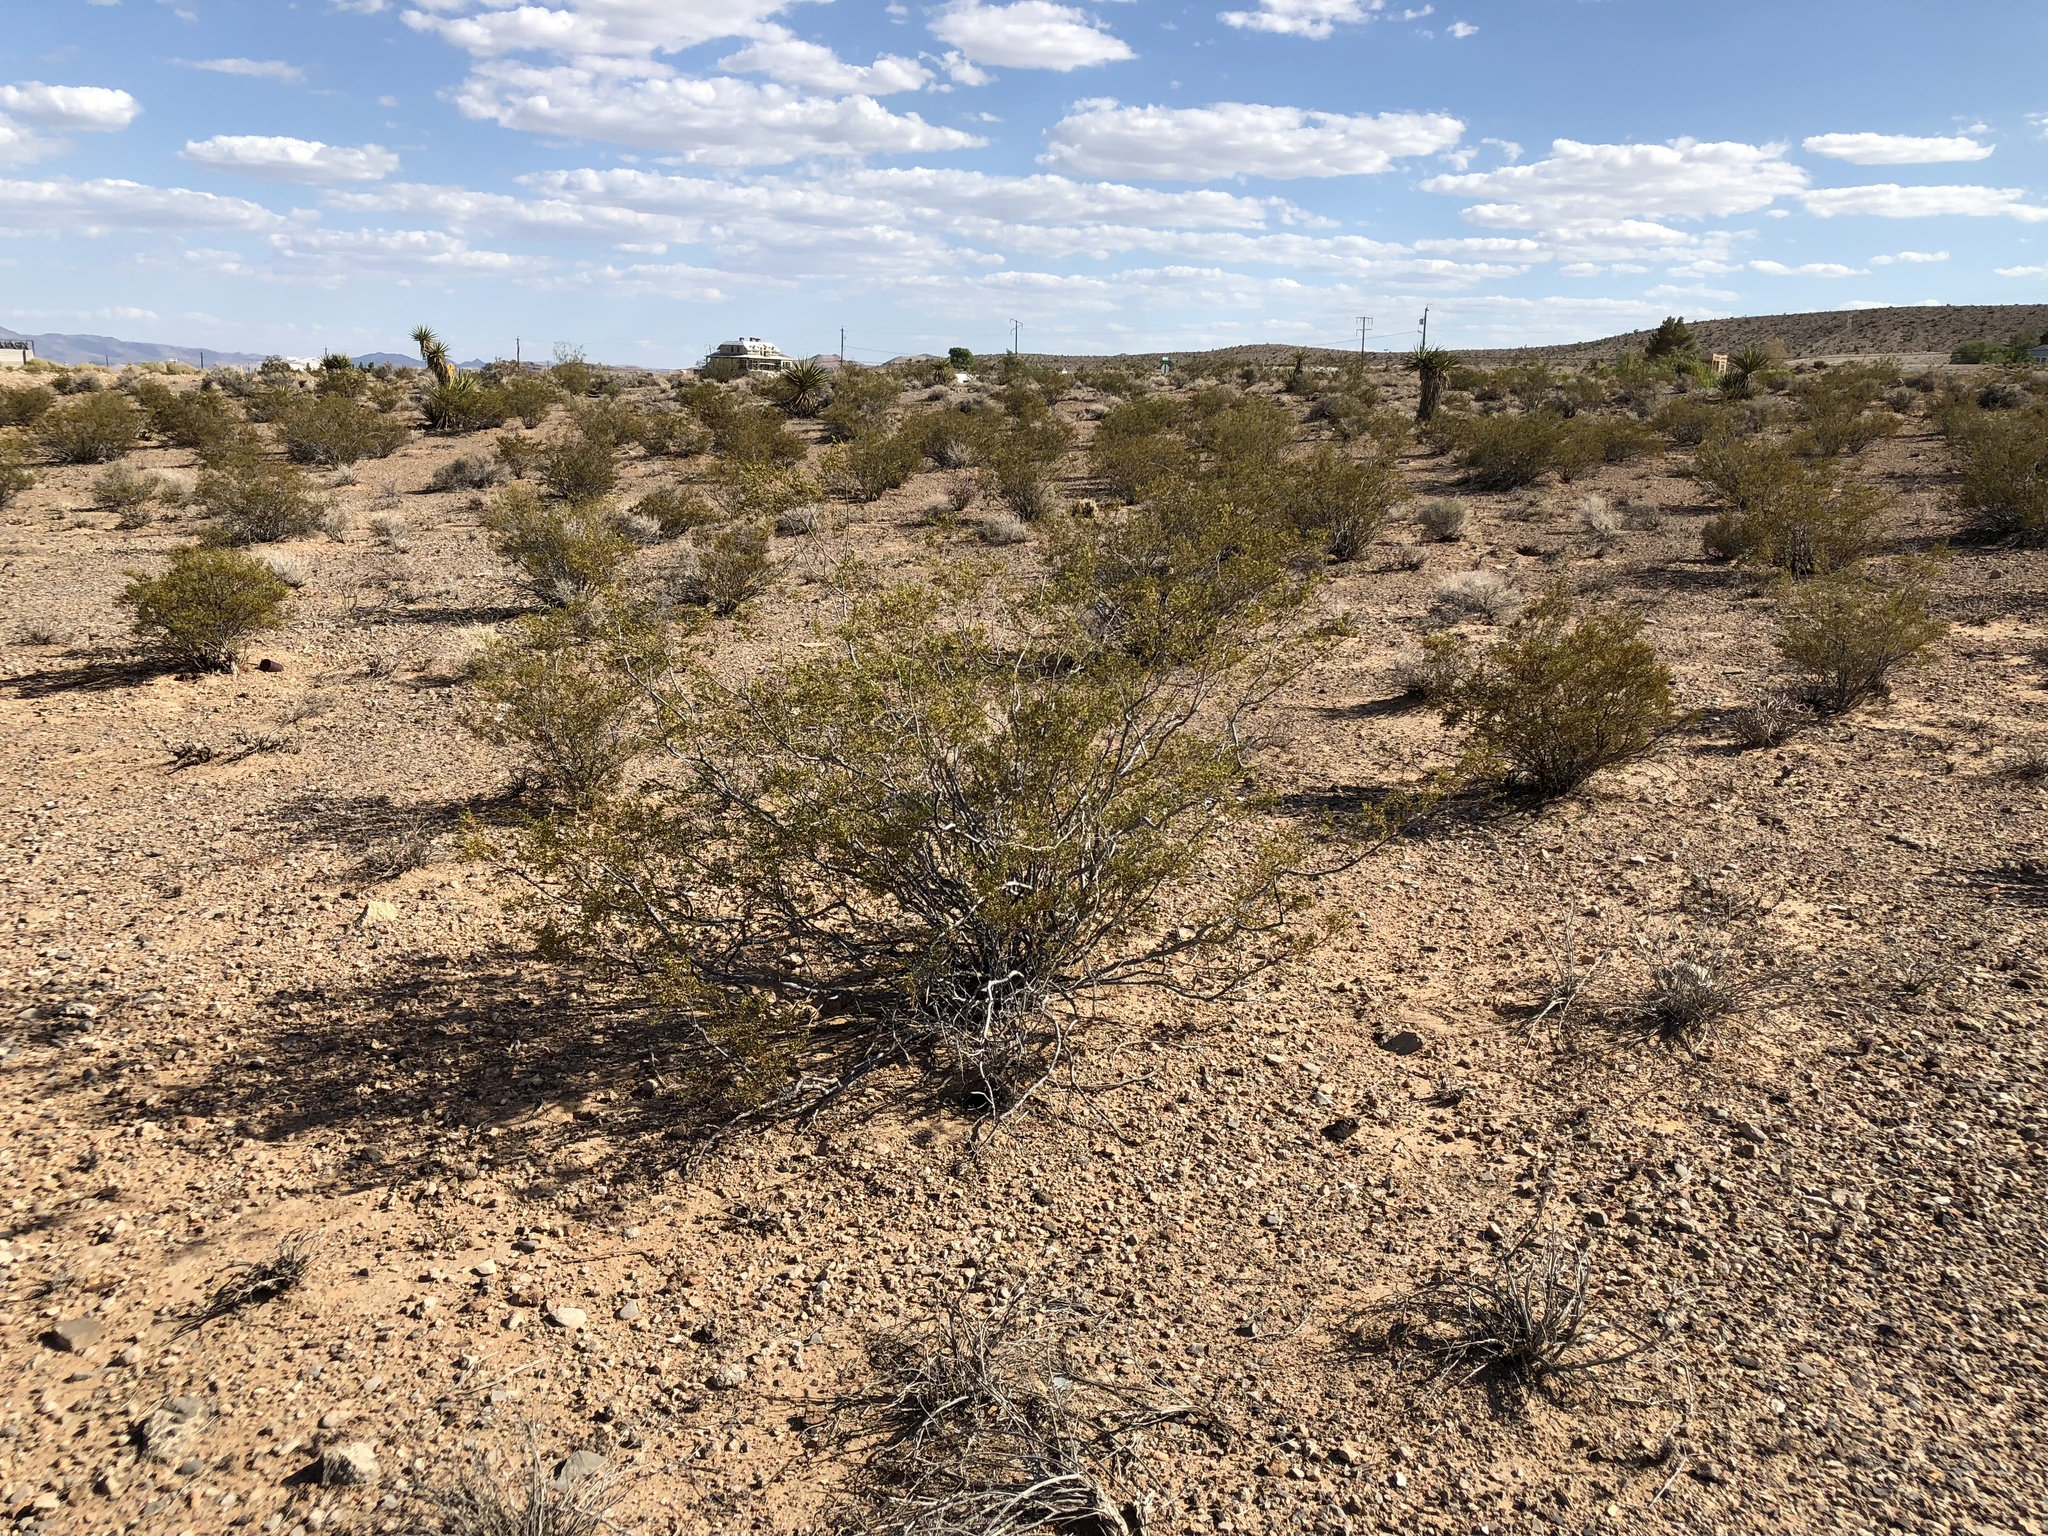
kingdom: Plantae
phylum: Tracheophyta
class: Magnoliopsida
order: Zygophyllales
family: Zygophyllaceae
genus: Larrea
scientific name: Larrea tridentata
